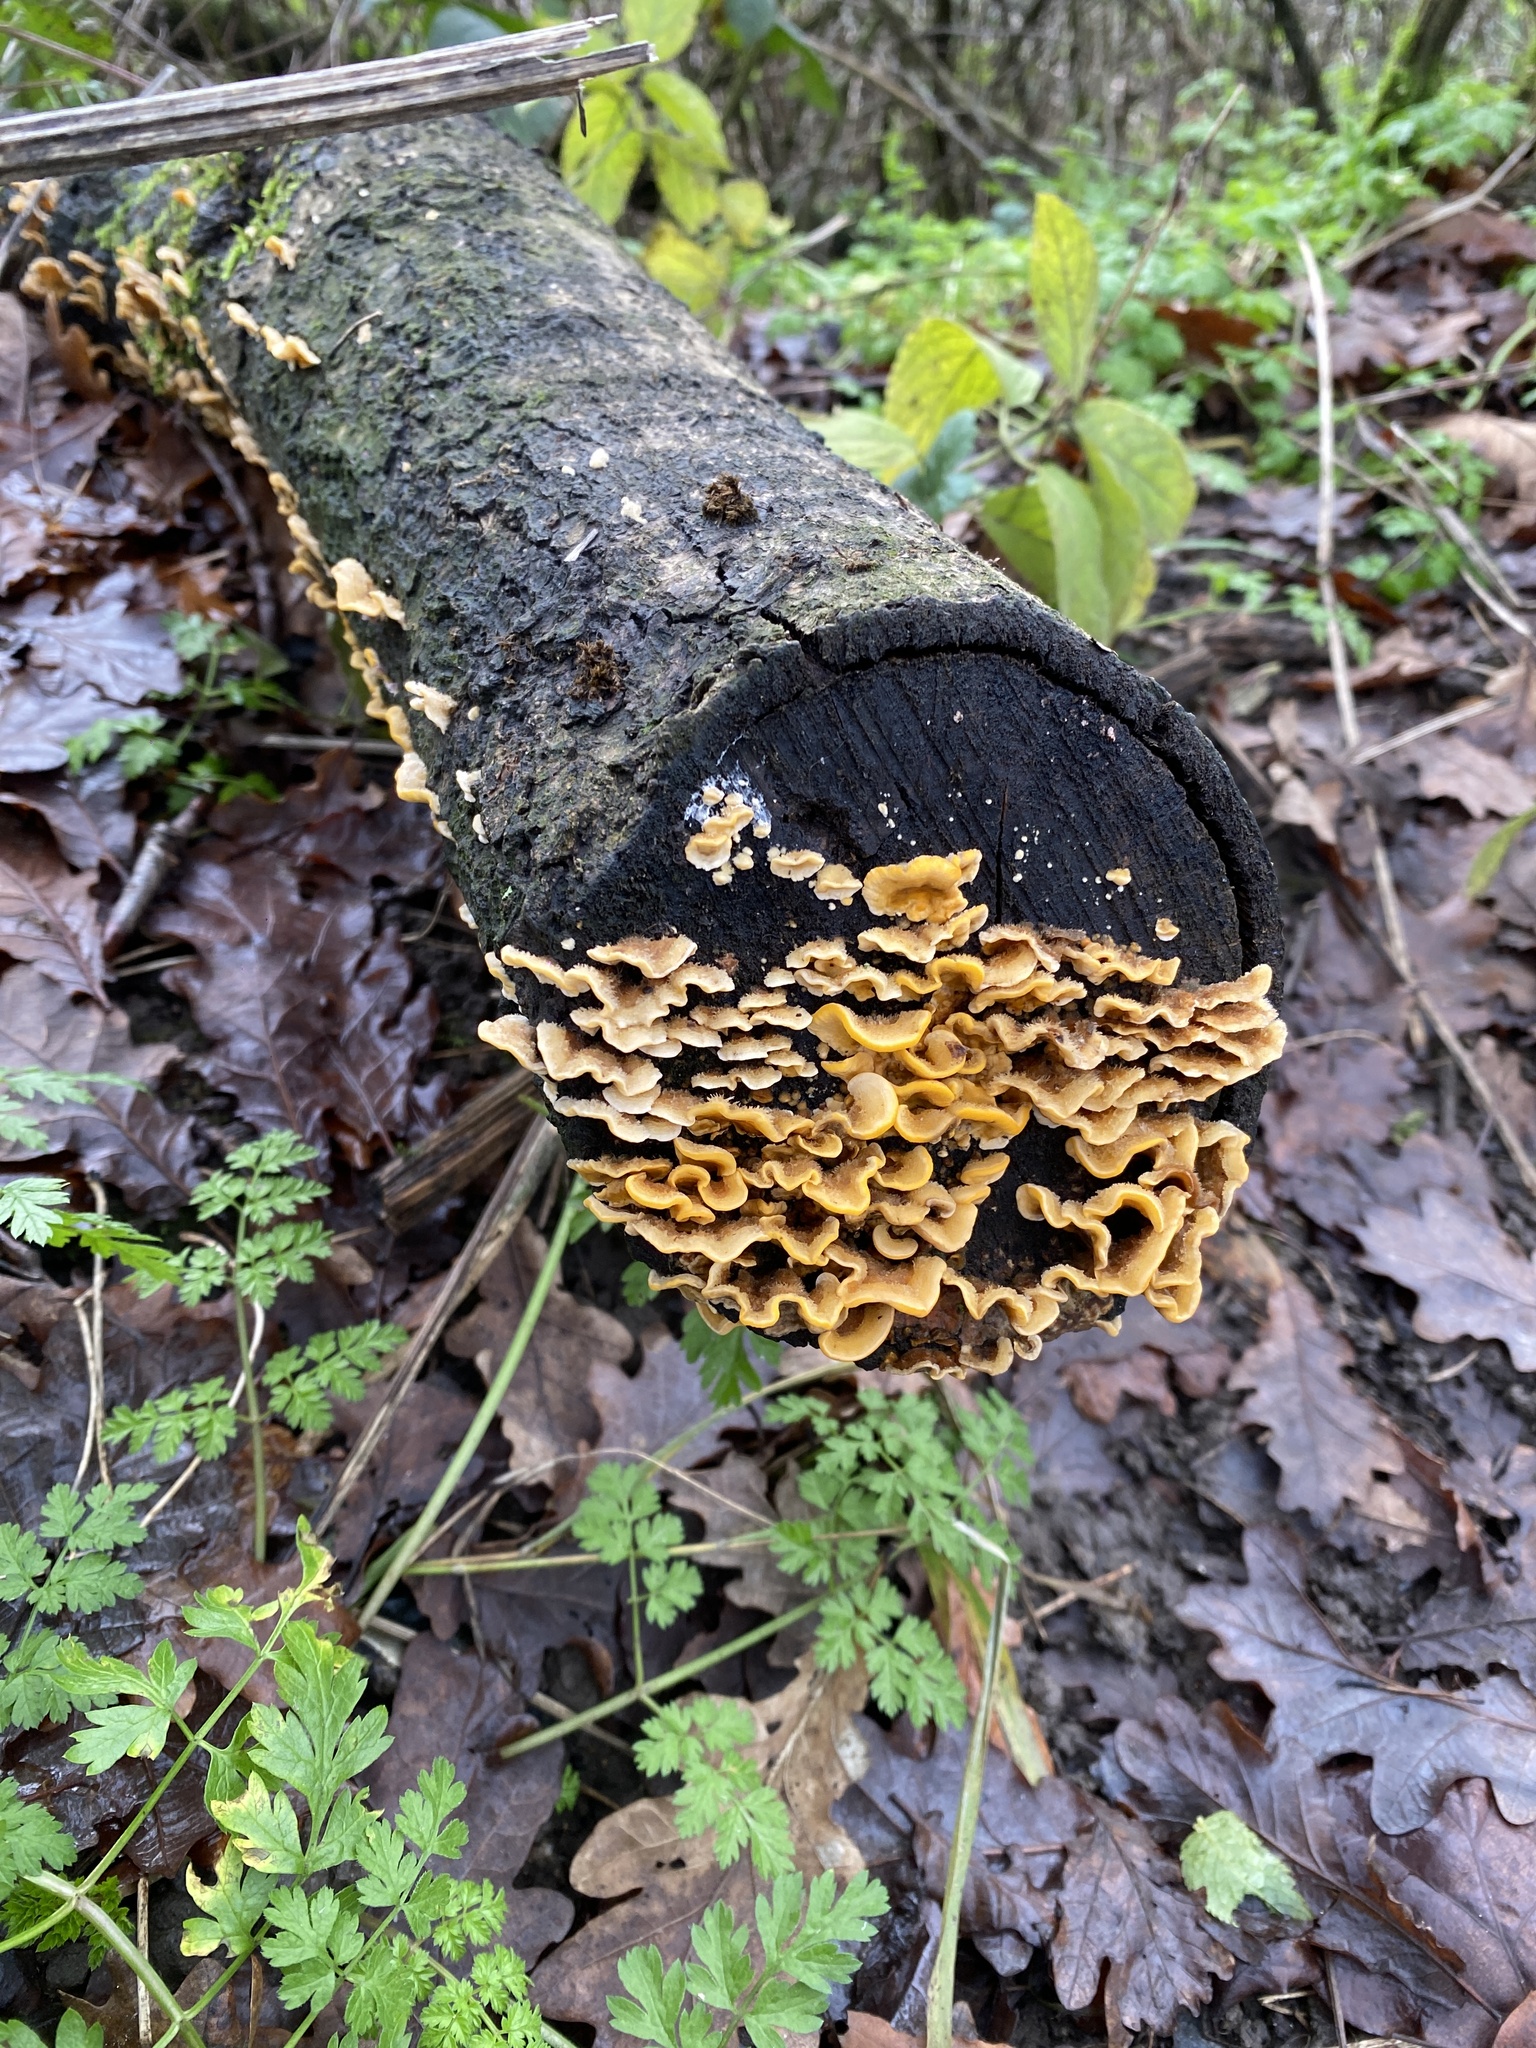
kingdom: Fungi
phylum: Basidiomycota
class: Agaricomycetes
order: Russulales
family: Stereaceae
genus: Stereum
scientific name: Stereum hirsutum
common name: Hairy curtain crust
